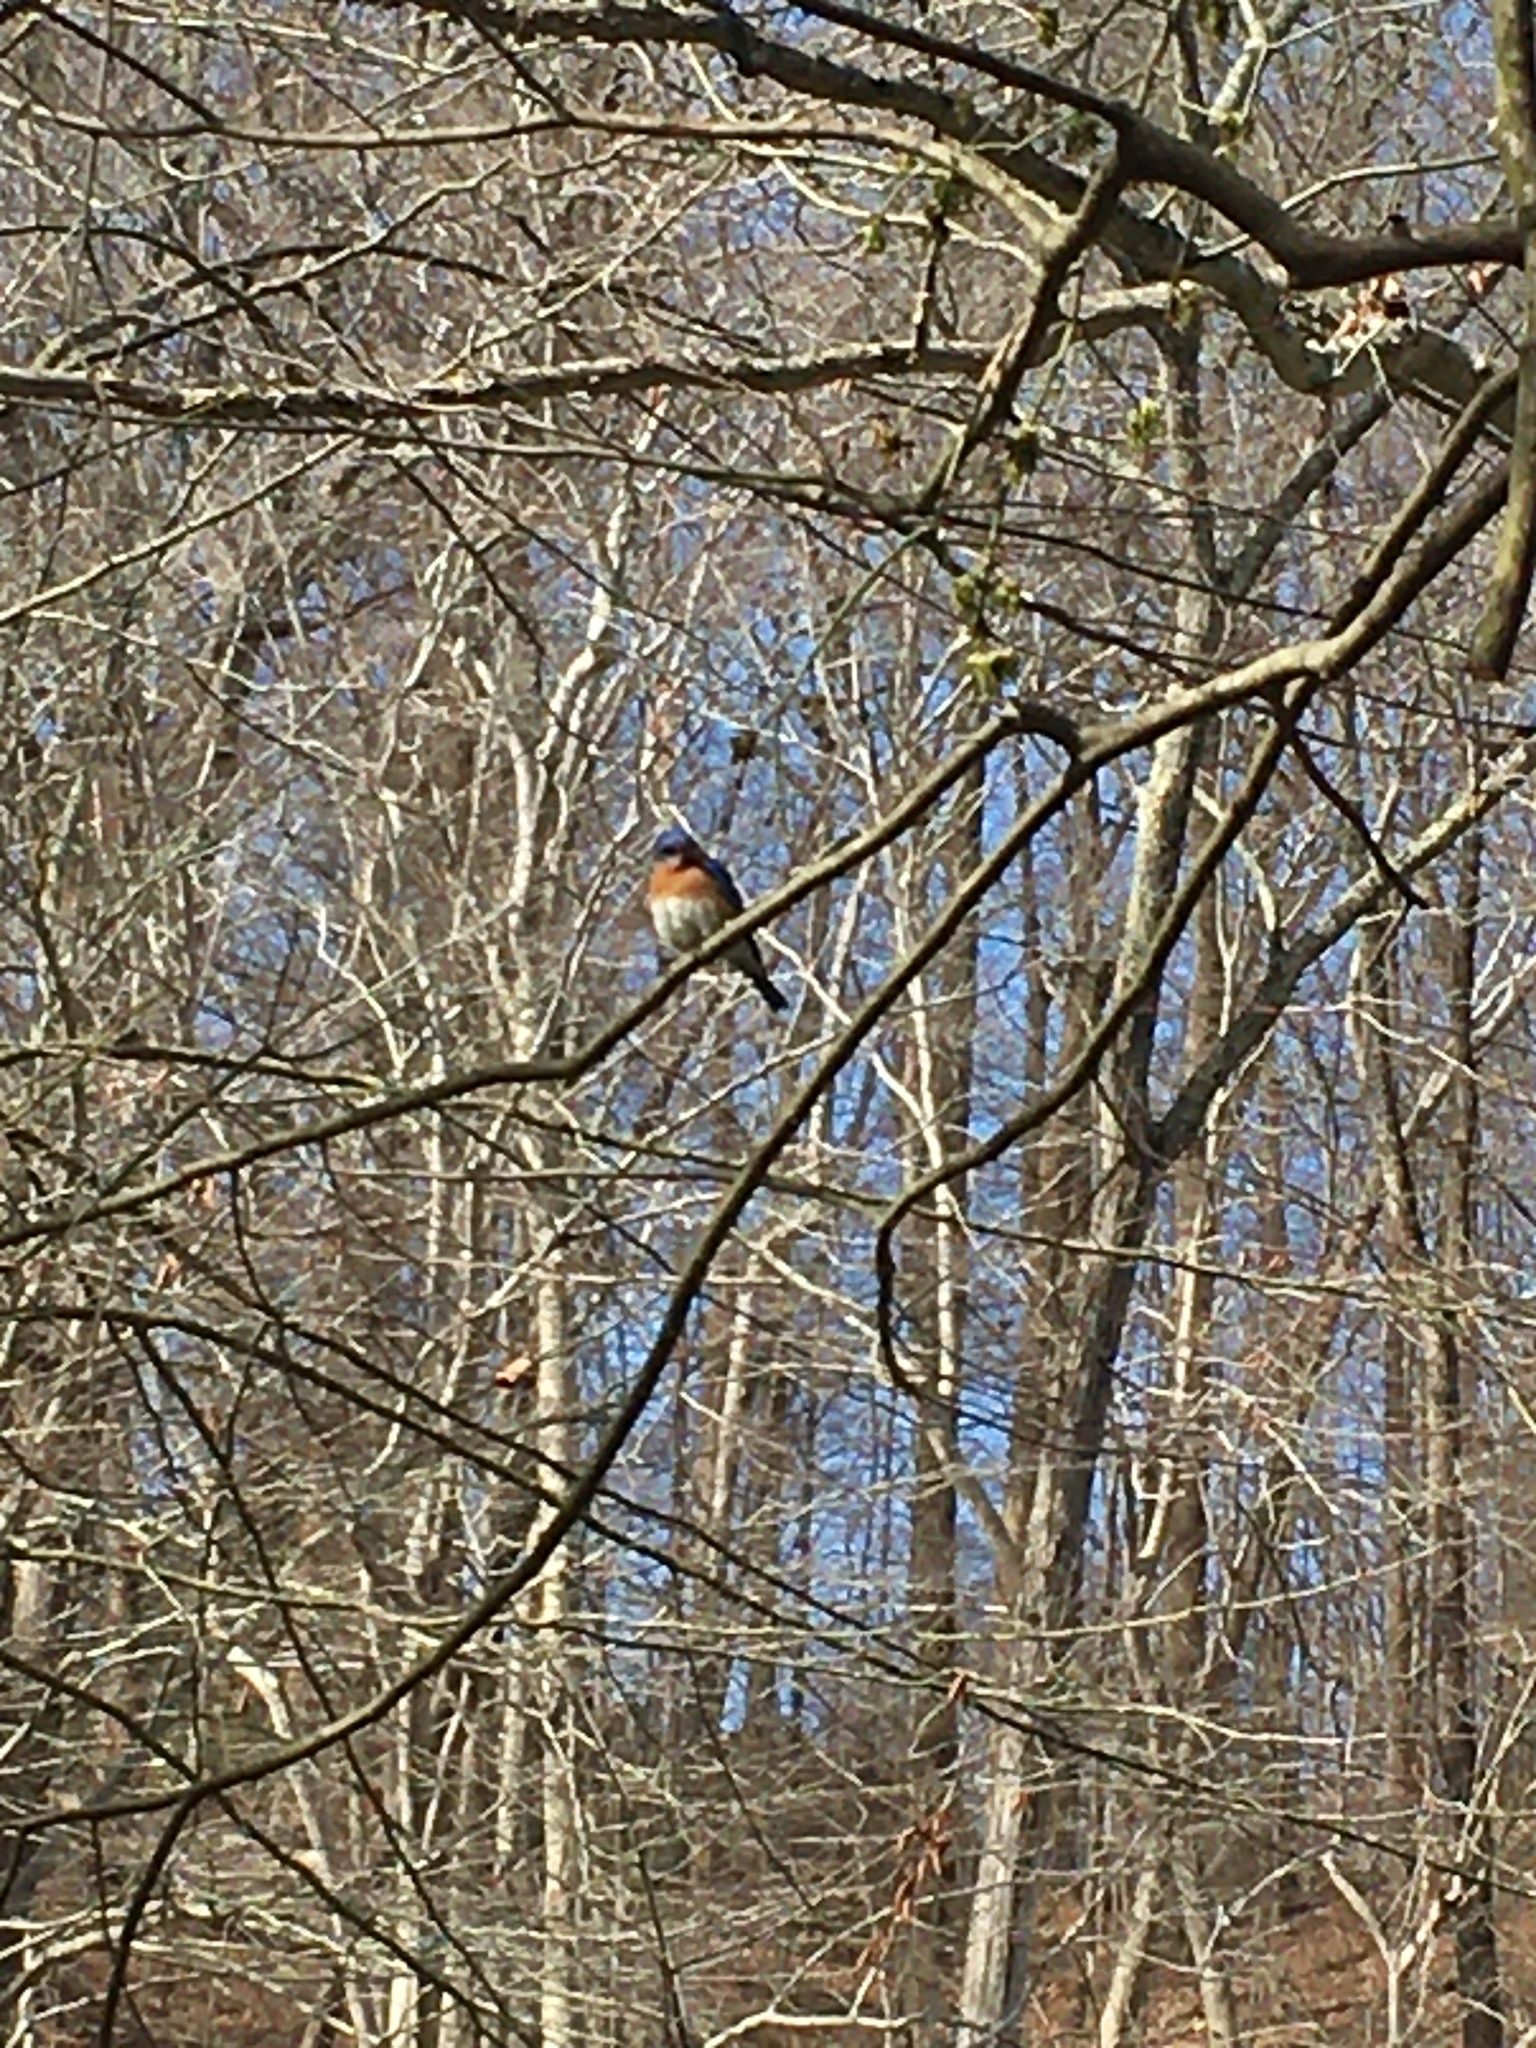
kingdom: Animalia
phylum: Chordata
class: Aves
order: Passeriformes
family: Turdidae
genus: Sialia
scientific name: Sialia sialis
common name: Eastern bluebird
